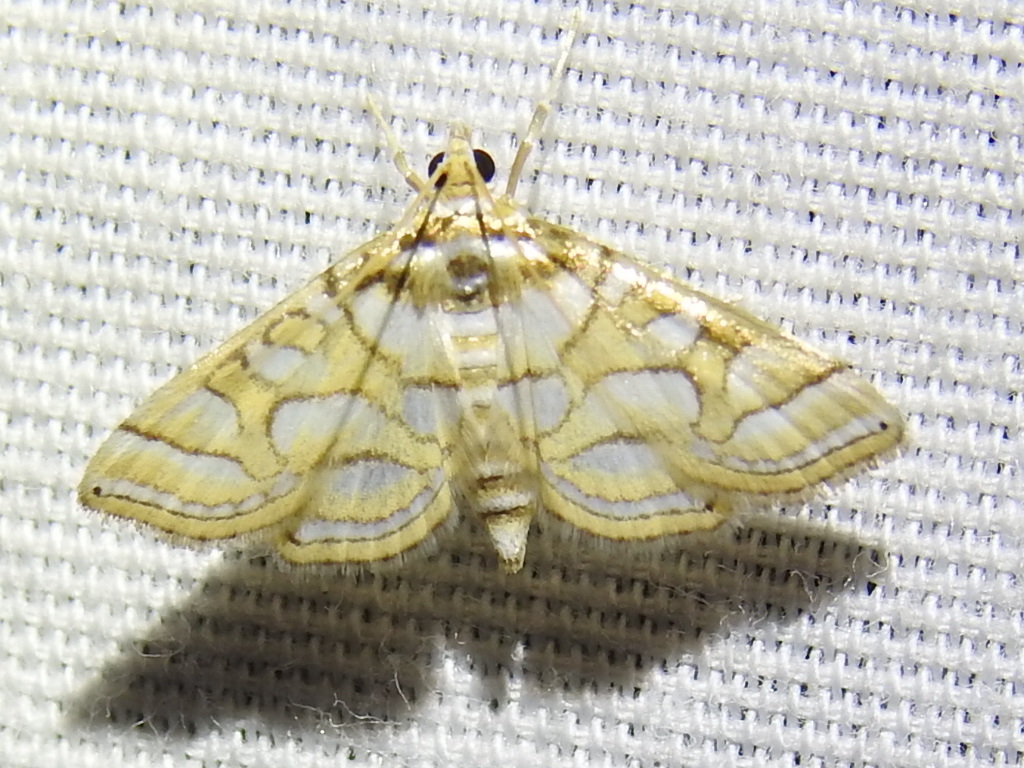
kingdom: Animalia
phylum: Arthropoda
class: Insecta
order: Lepidoptera
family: Crambidae
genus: Pseudopyrausta
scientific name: Pseudopyrausta santatalis
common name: Moth
